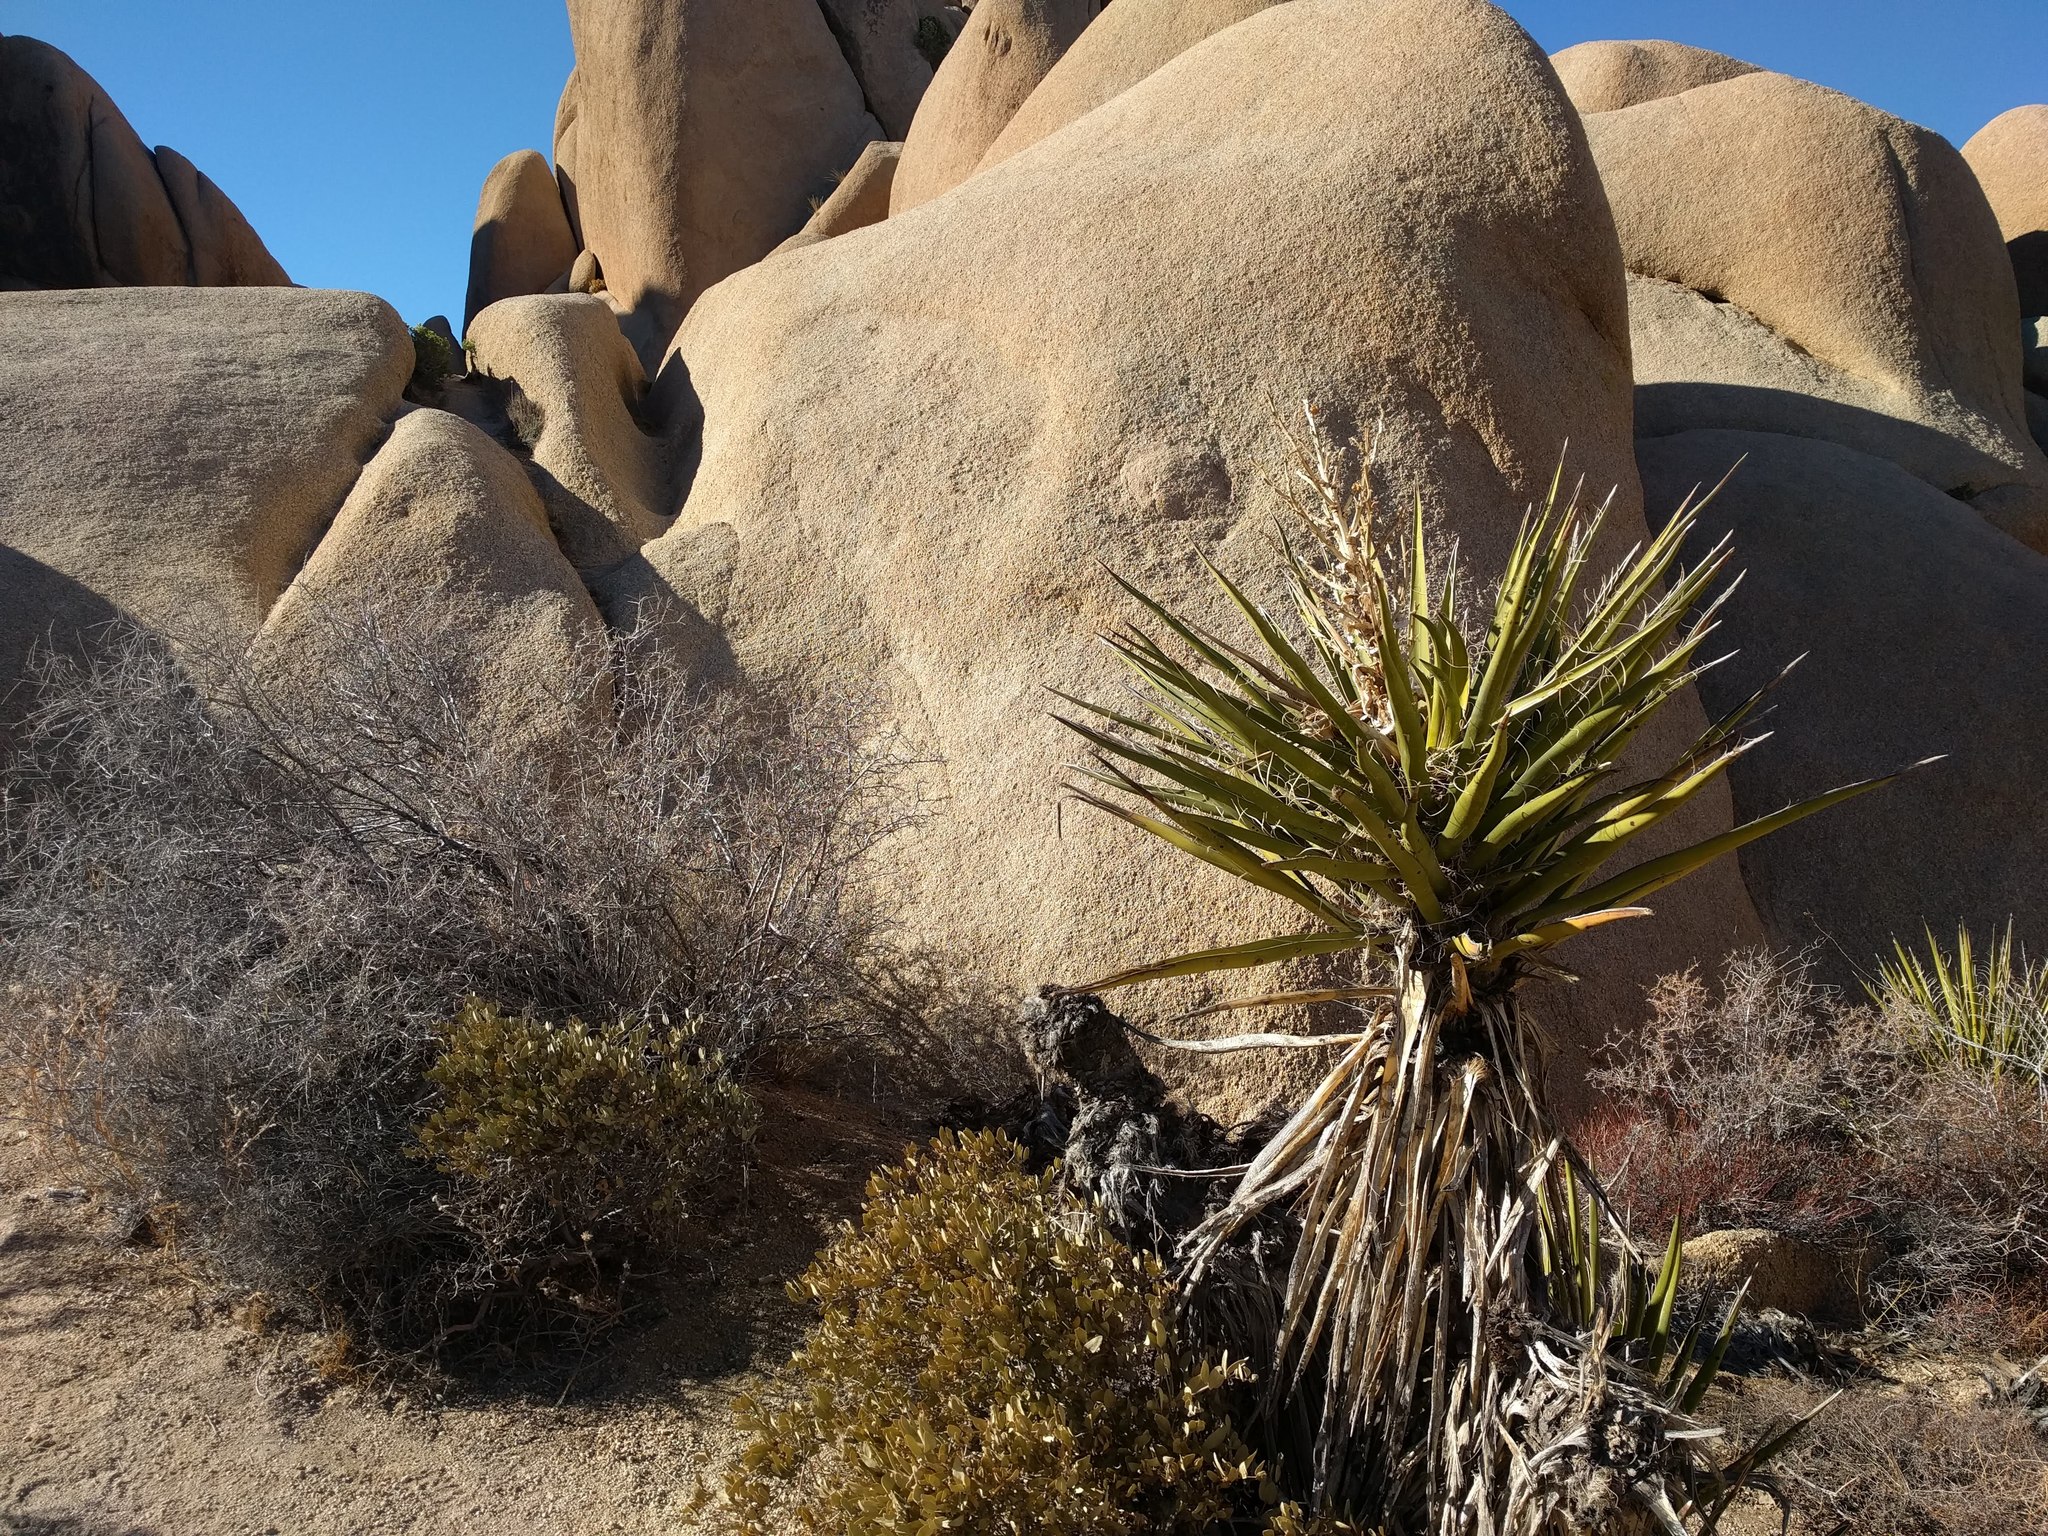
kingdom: Plantae
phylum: Tracheophyta
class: Liliopsida
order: Asparagales
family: Asparagaceae
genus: Yucca
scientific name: Yucca schidigera
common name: Mojave yucca
